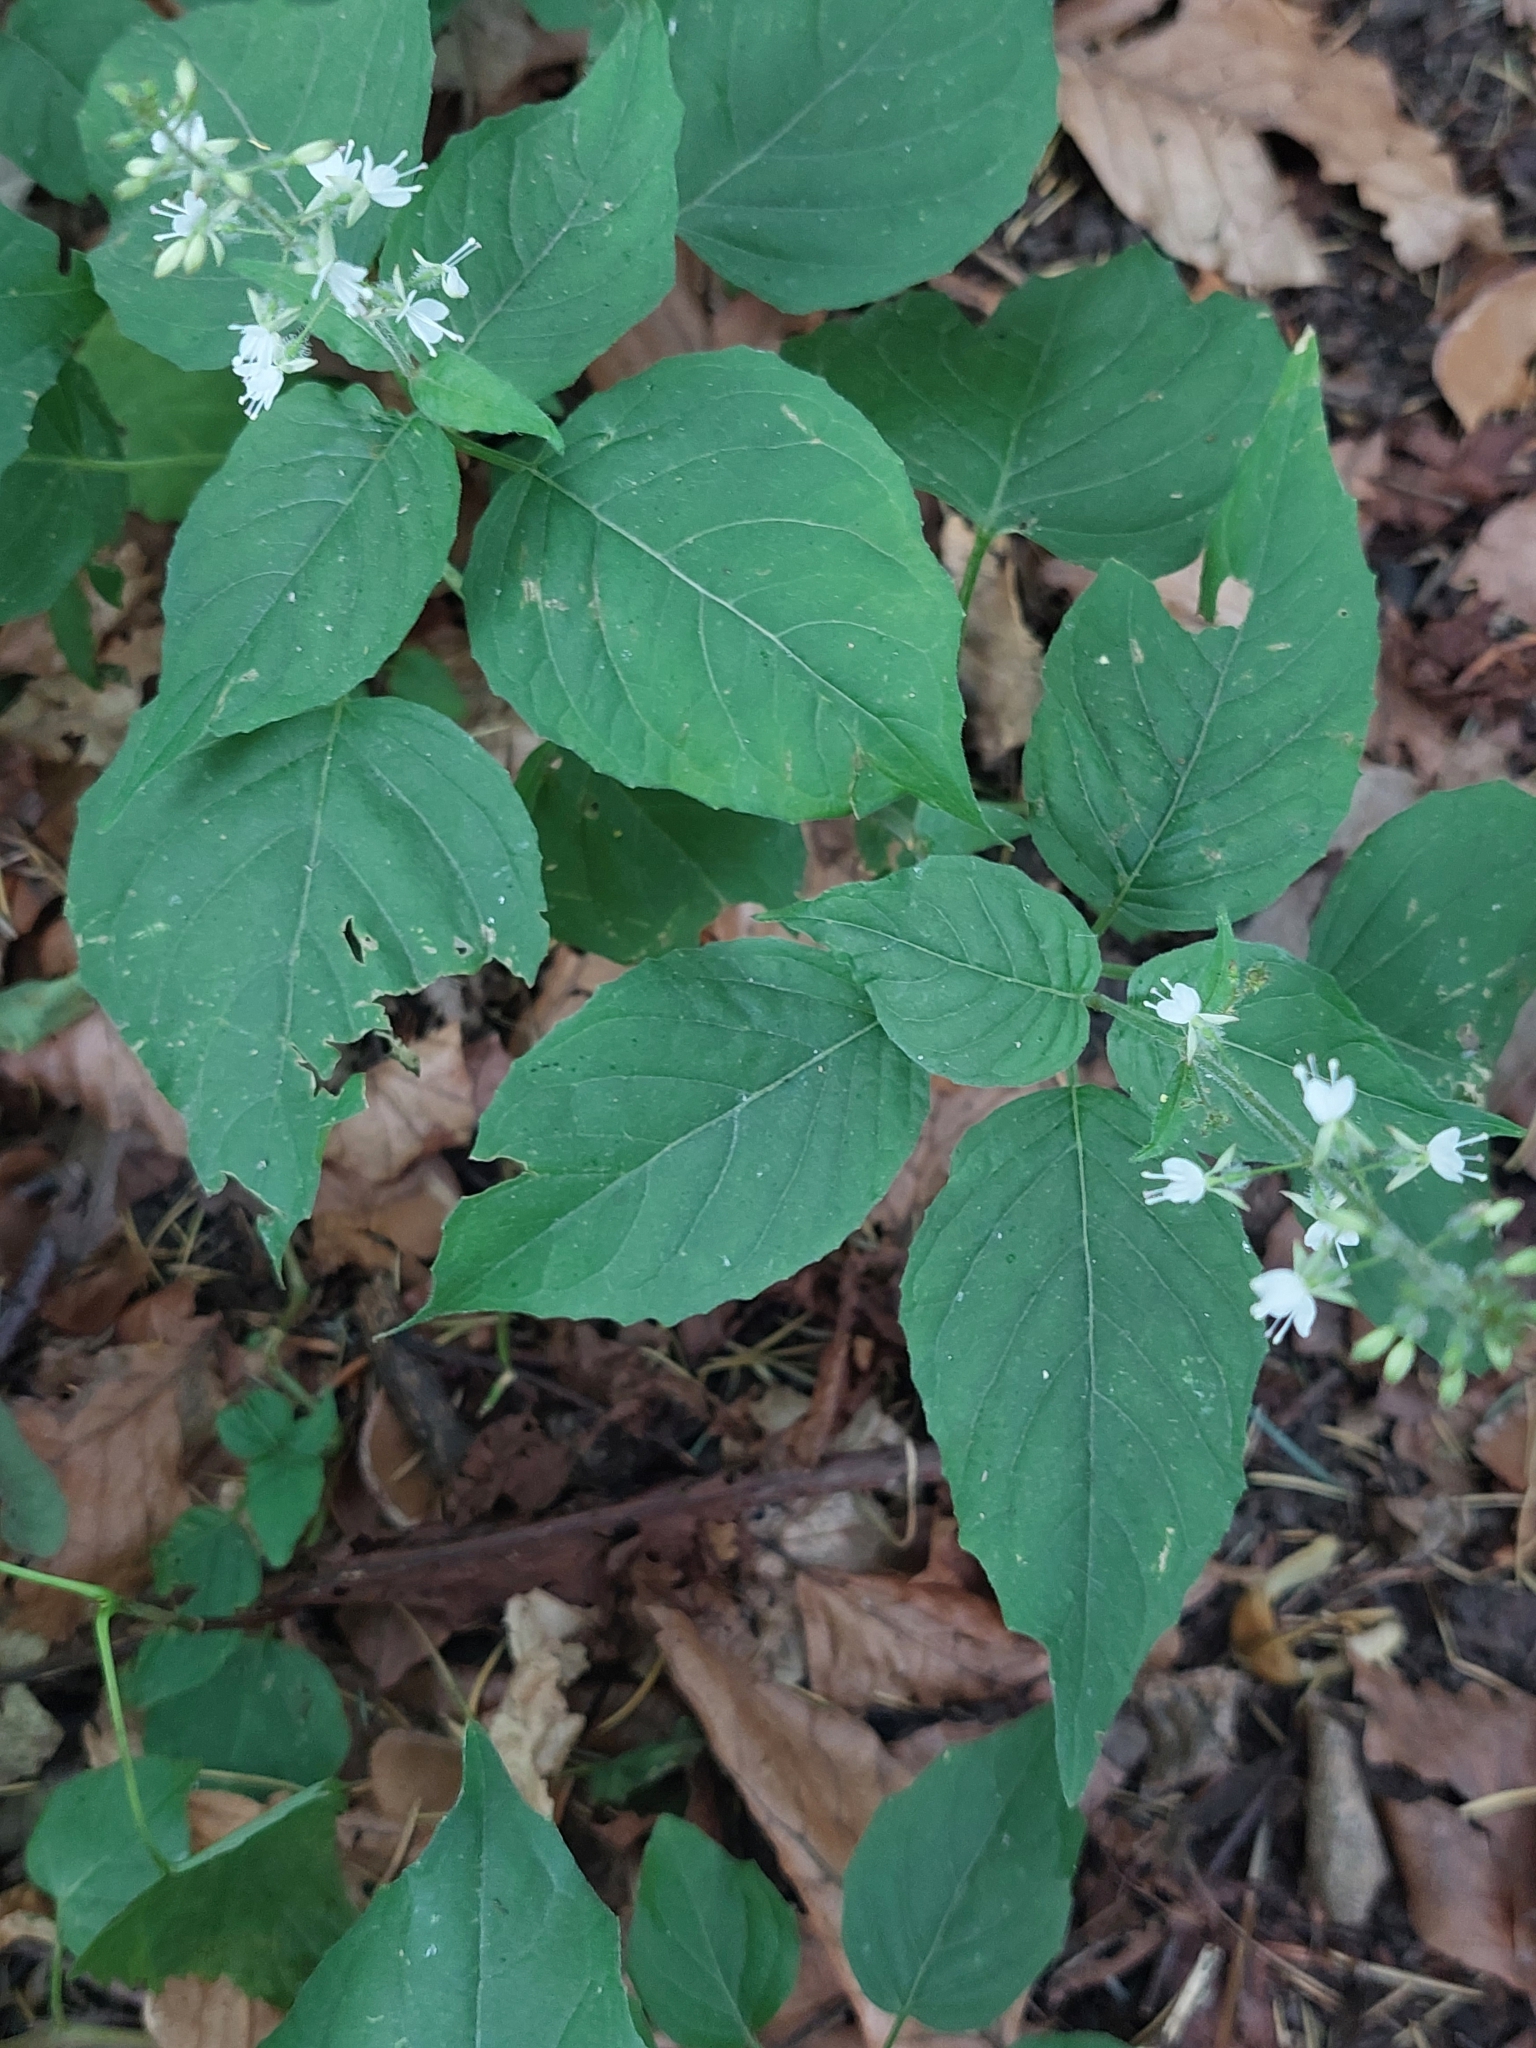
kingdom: Plantae
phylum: Tracheophyta
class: Magnoliopsida
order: Myrtales
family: Onagraceae
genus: Circaea
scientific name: Circaea lutetiana
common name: Enchanter's-nightshade
